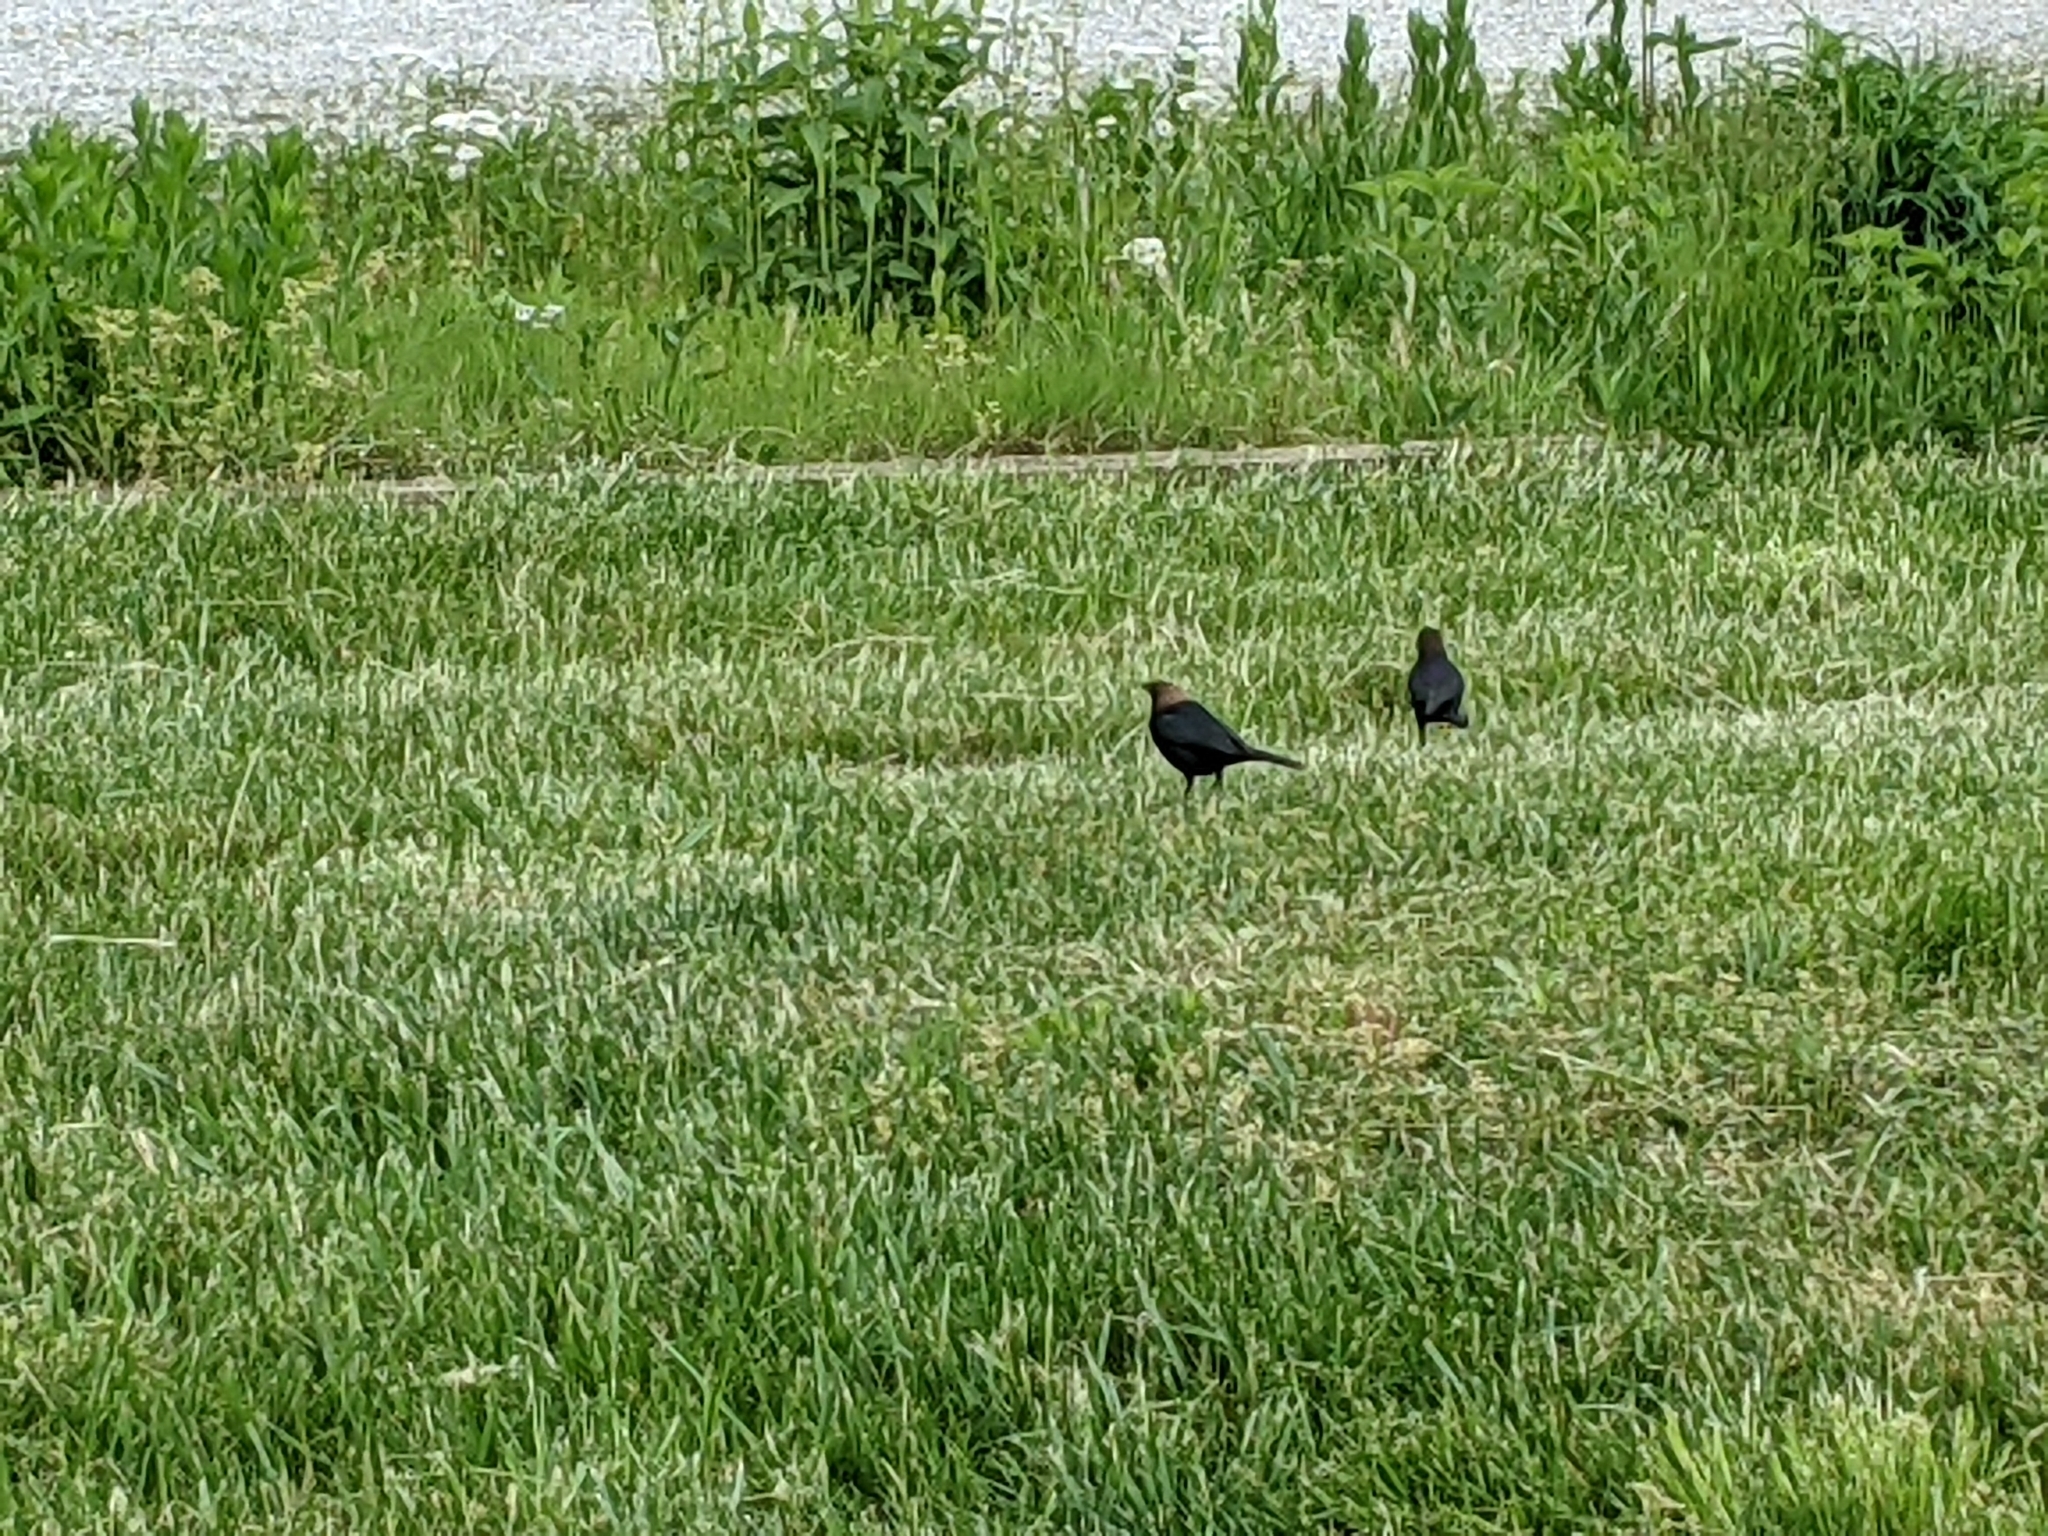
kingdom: Animalia
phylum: Chordata
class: Aves
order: Passeriformes
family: Icteridae
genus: Molothrus
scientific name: Molothrus ater
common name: Brown-headed cowbird
